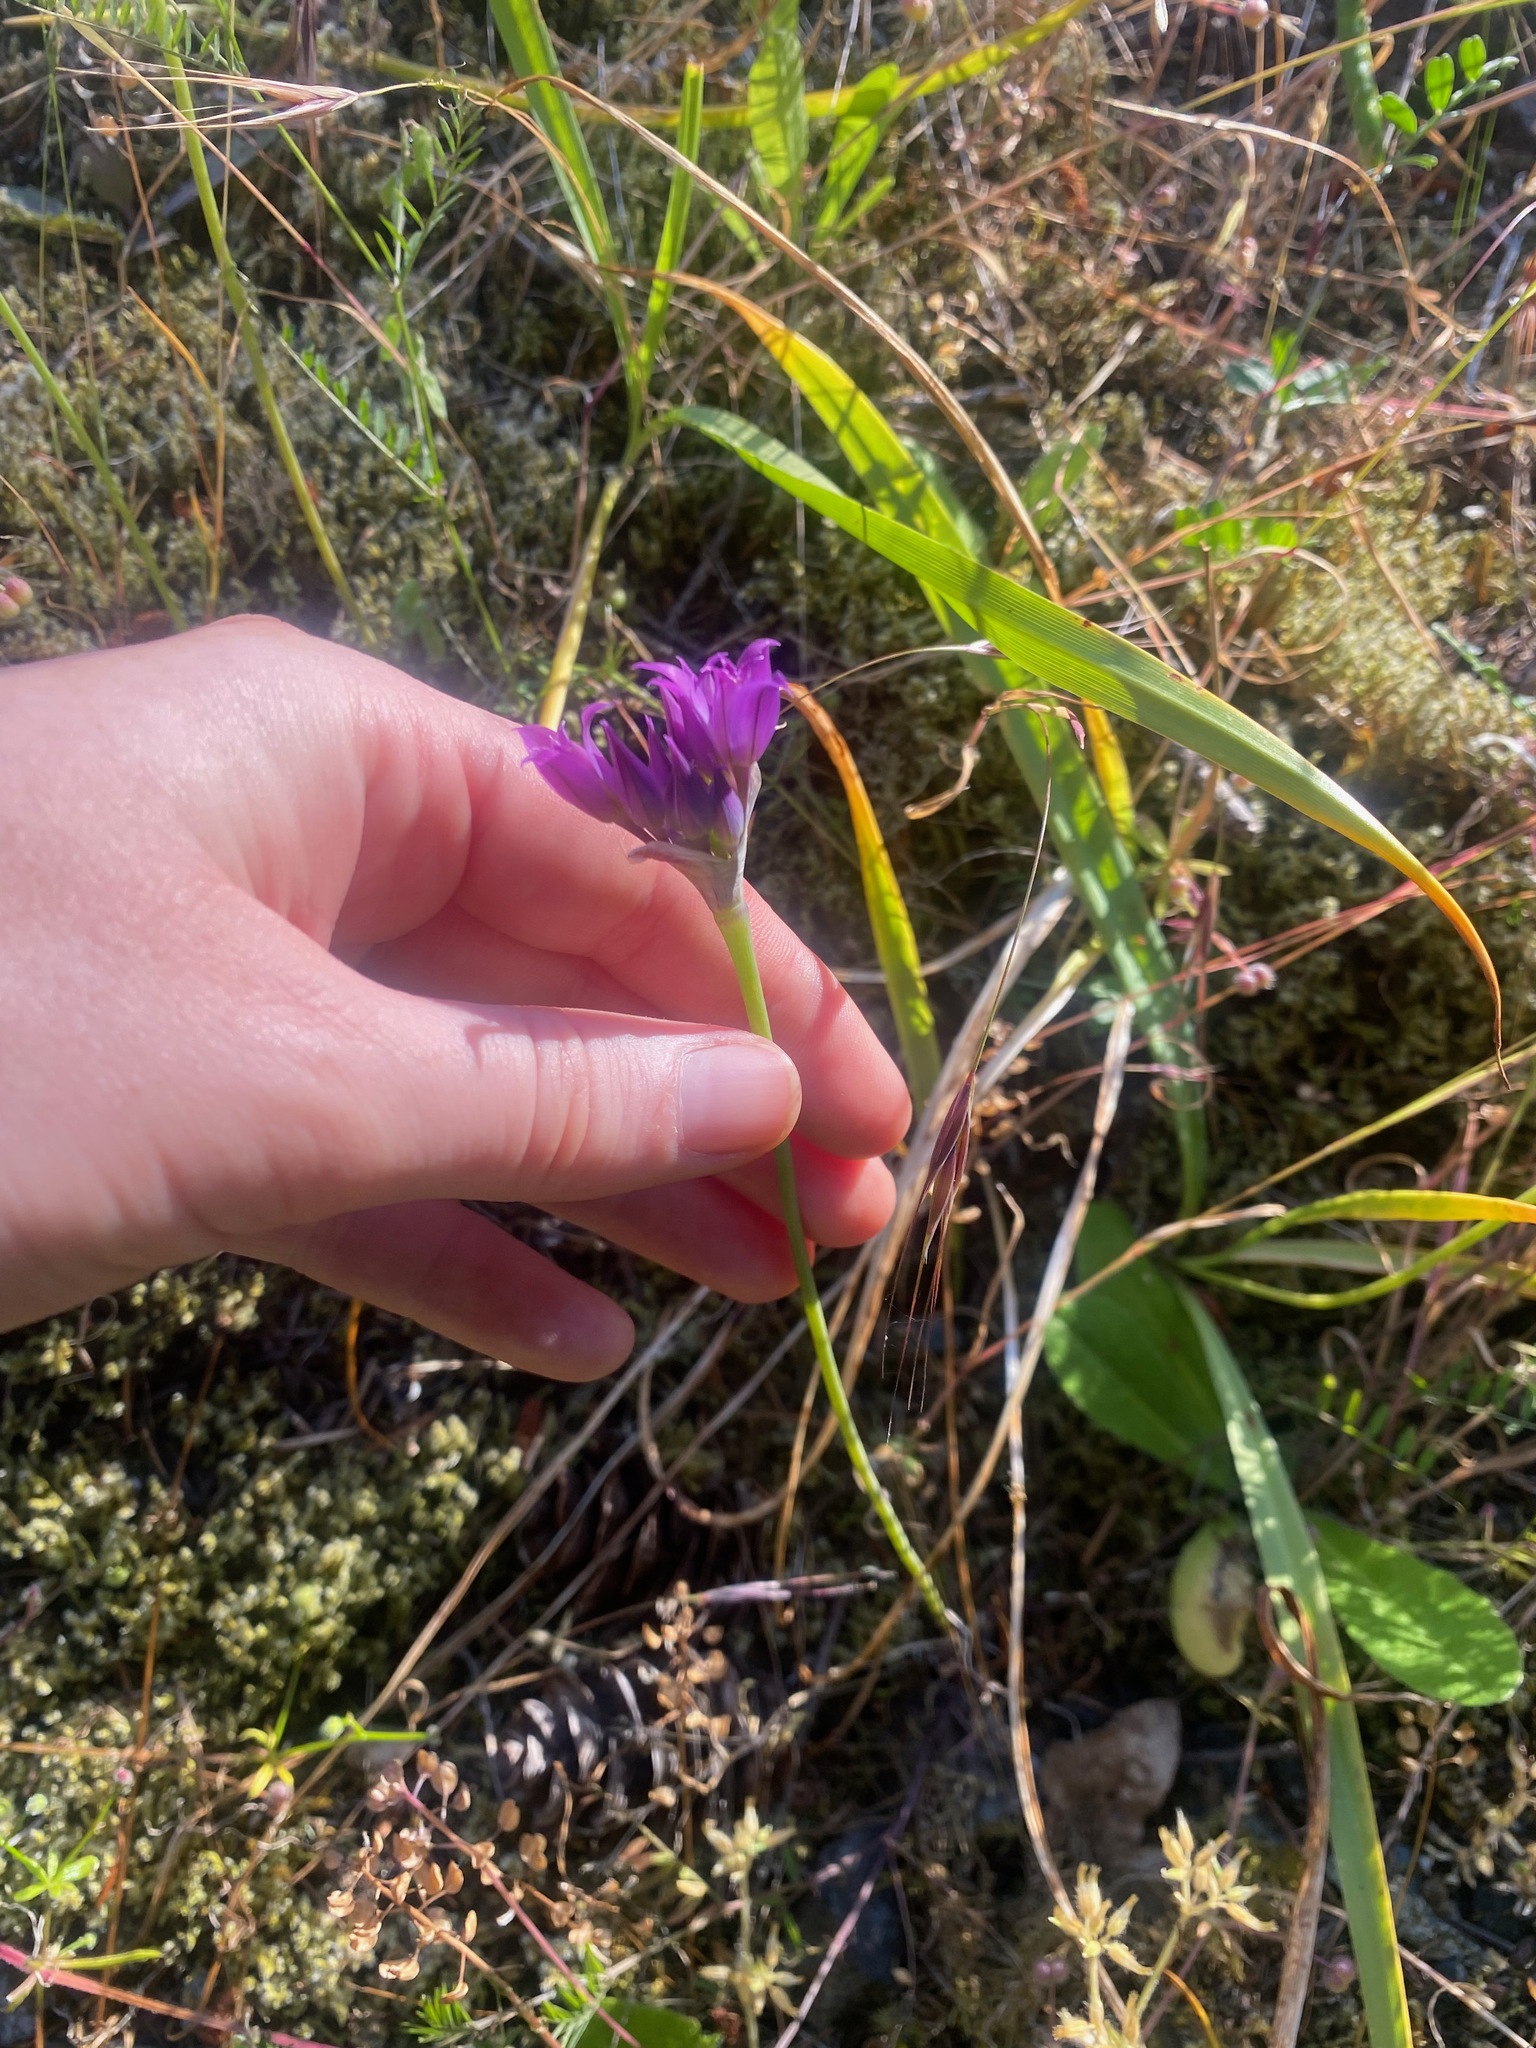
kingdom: Plantae
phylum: Tracheophyta
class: Liliopsida
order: Asparagales
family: Amaryllidaceae
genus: Allium
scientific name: Allium acuminatum
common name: Hooker's onion
